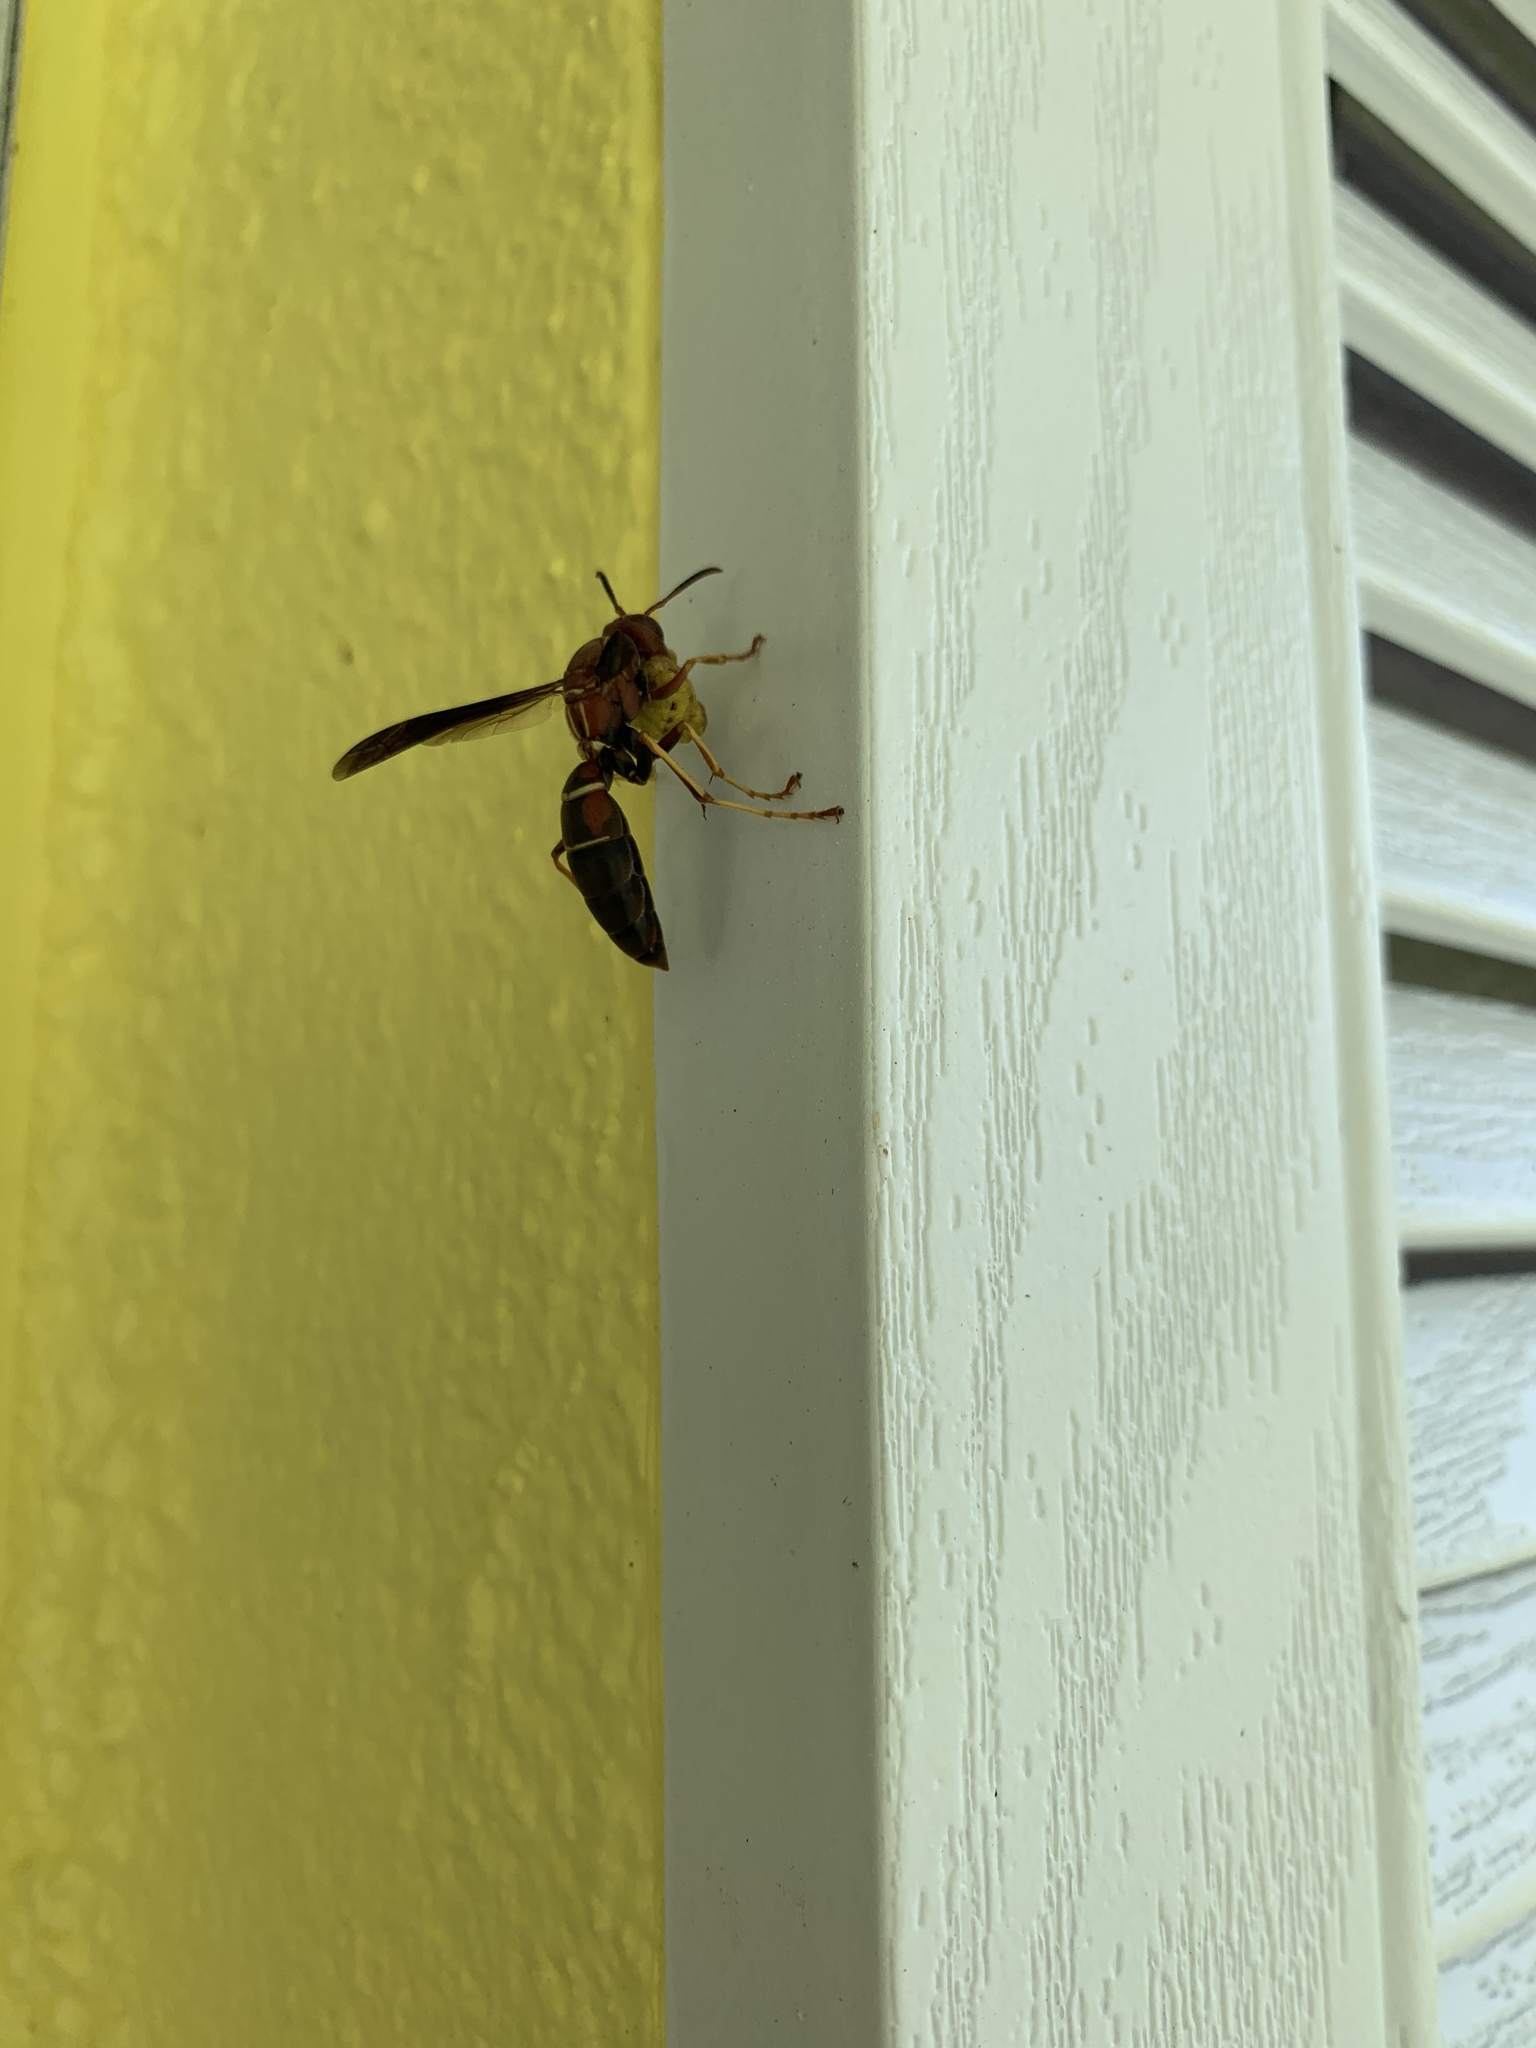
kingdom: Animalia
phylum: Arthropoda
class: Insecta
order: Hymenoptera
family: Eumenidae
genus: Polistes
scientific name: Polistes fuscatus
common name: Dark paper wasp
